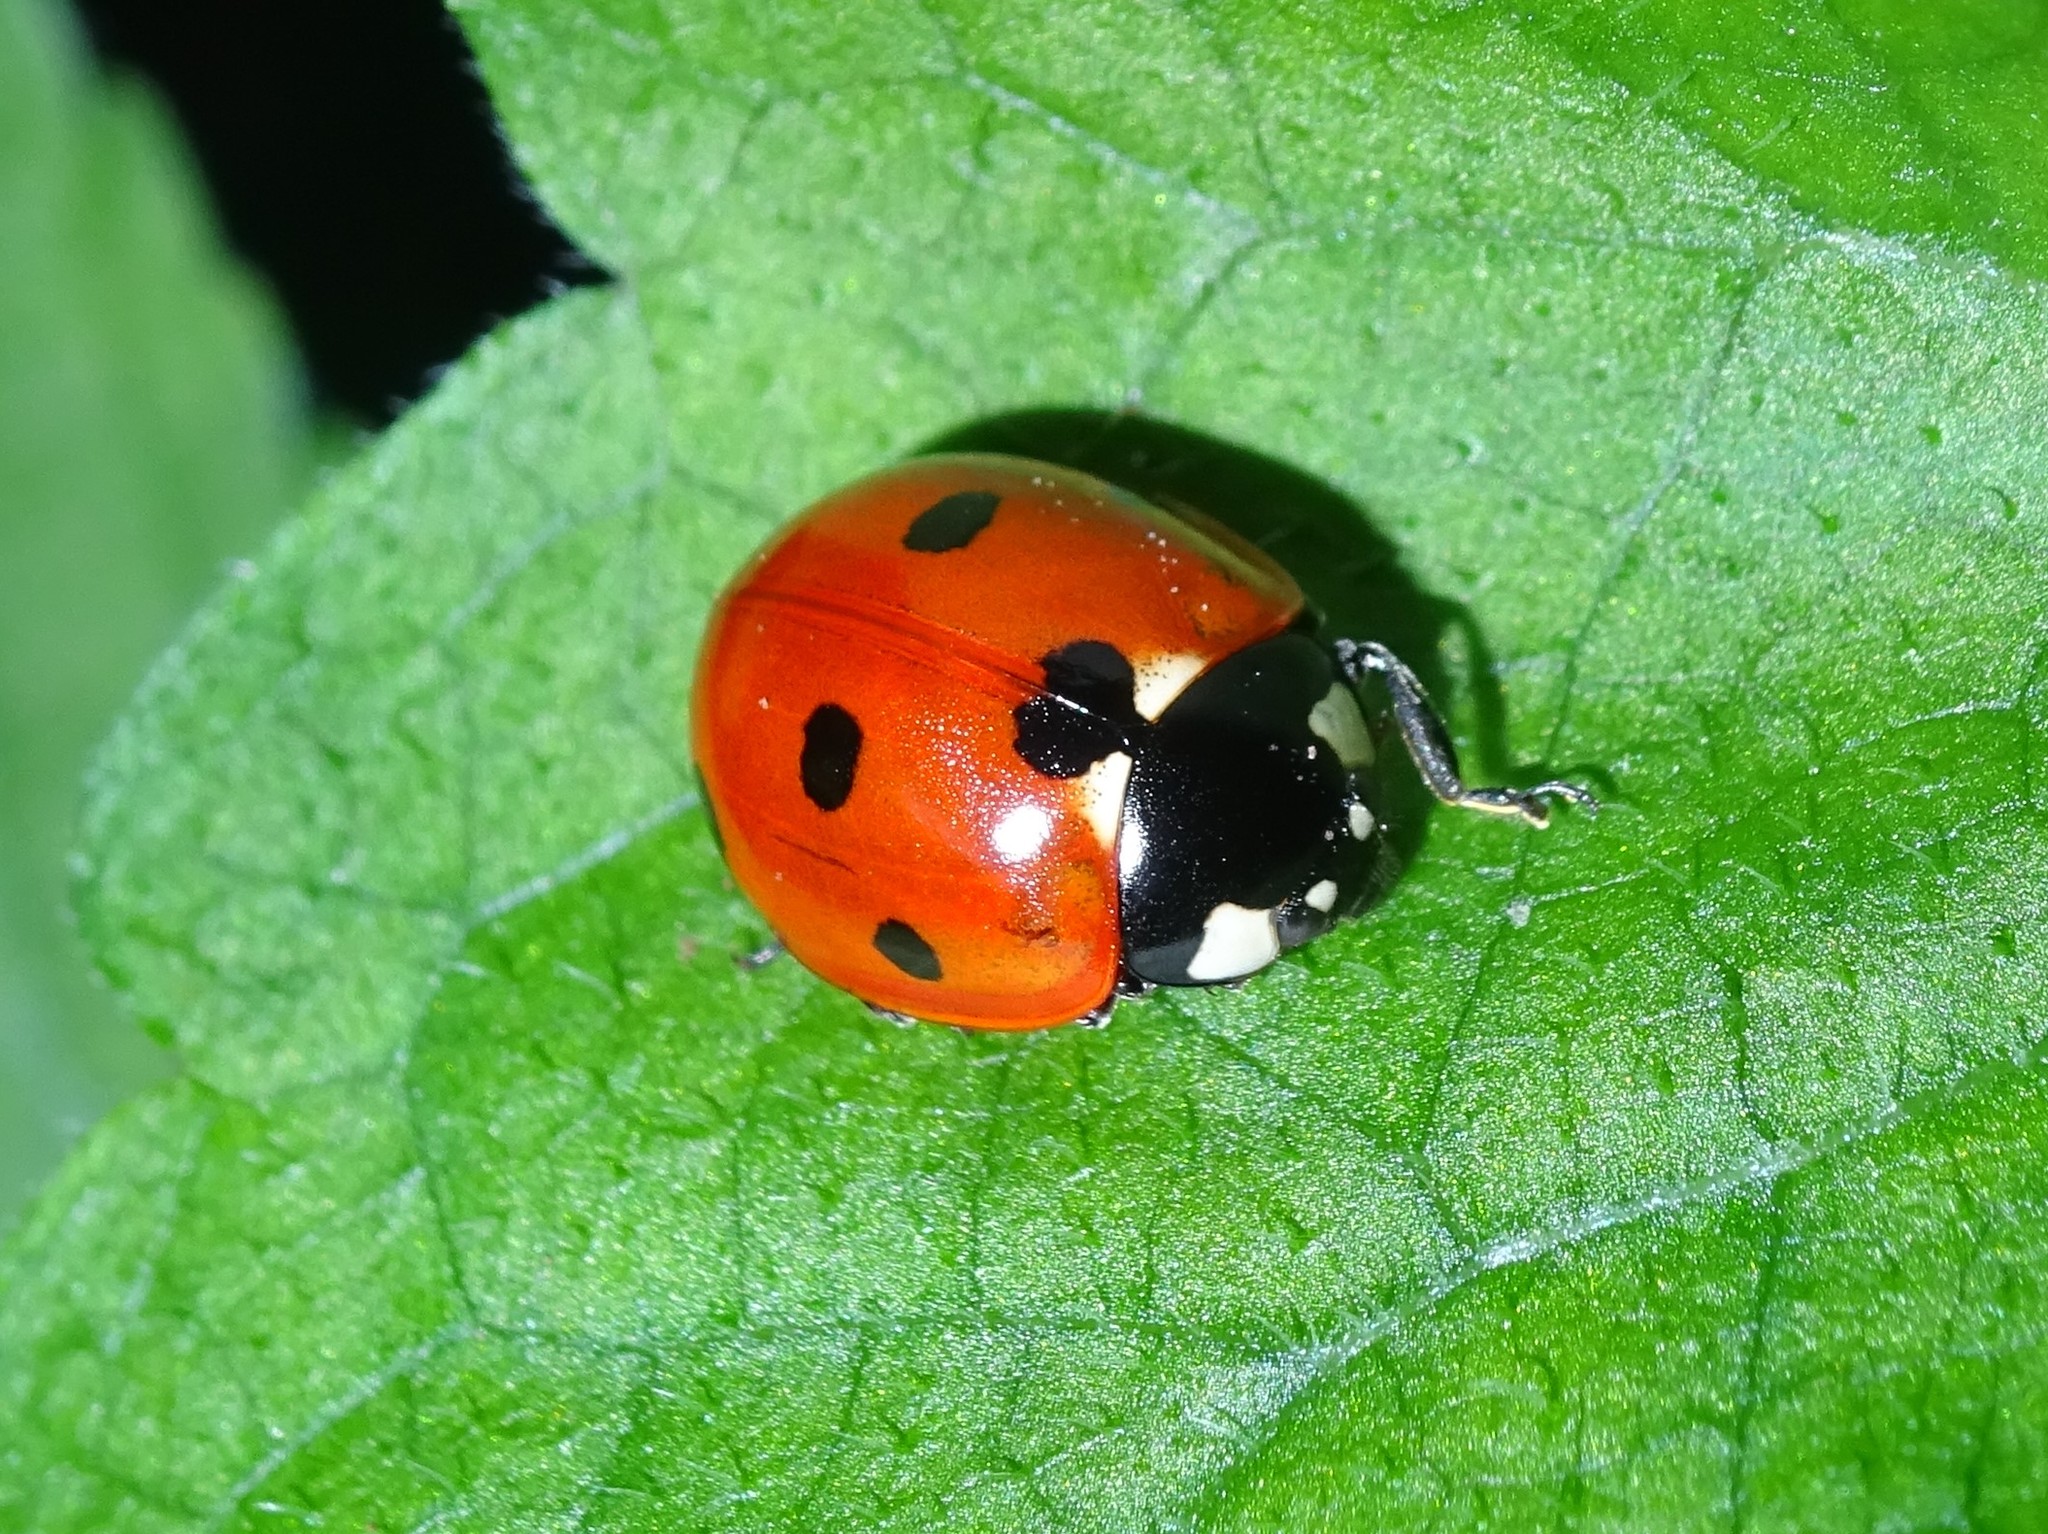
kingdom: Animalia
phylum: Arthropoda
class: Insecta
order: Coleoptera
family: Coccinellidae
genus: Coccinella
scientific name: Coccinella septempunctata
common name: Sevenspotted lady beetle
